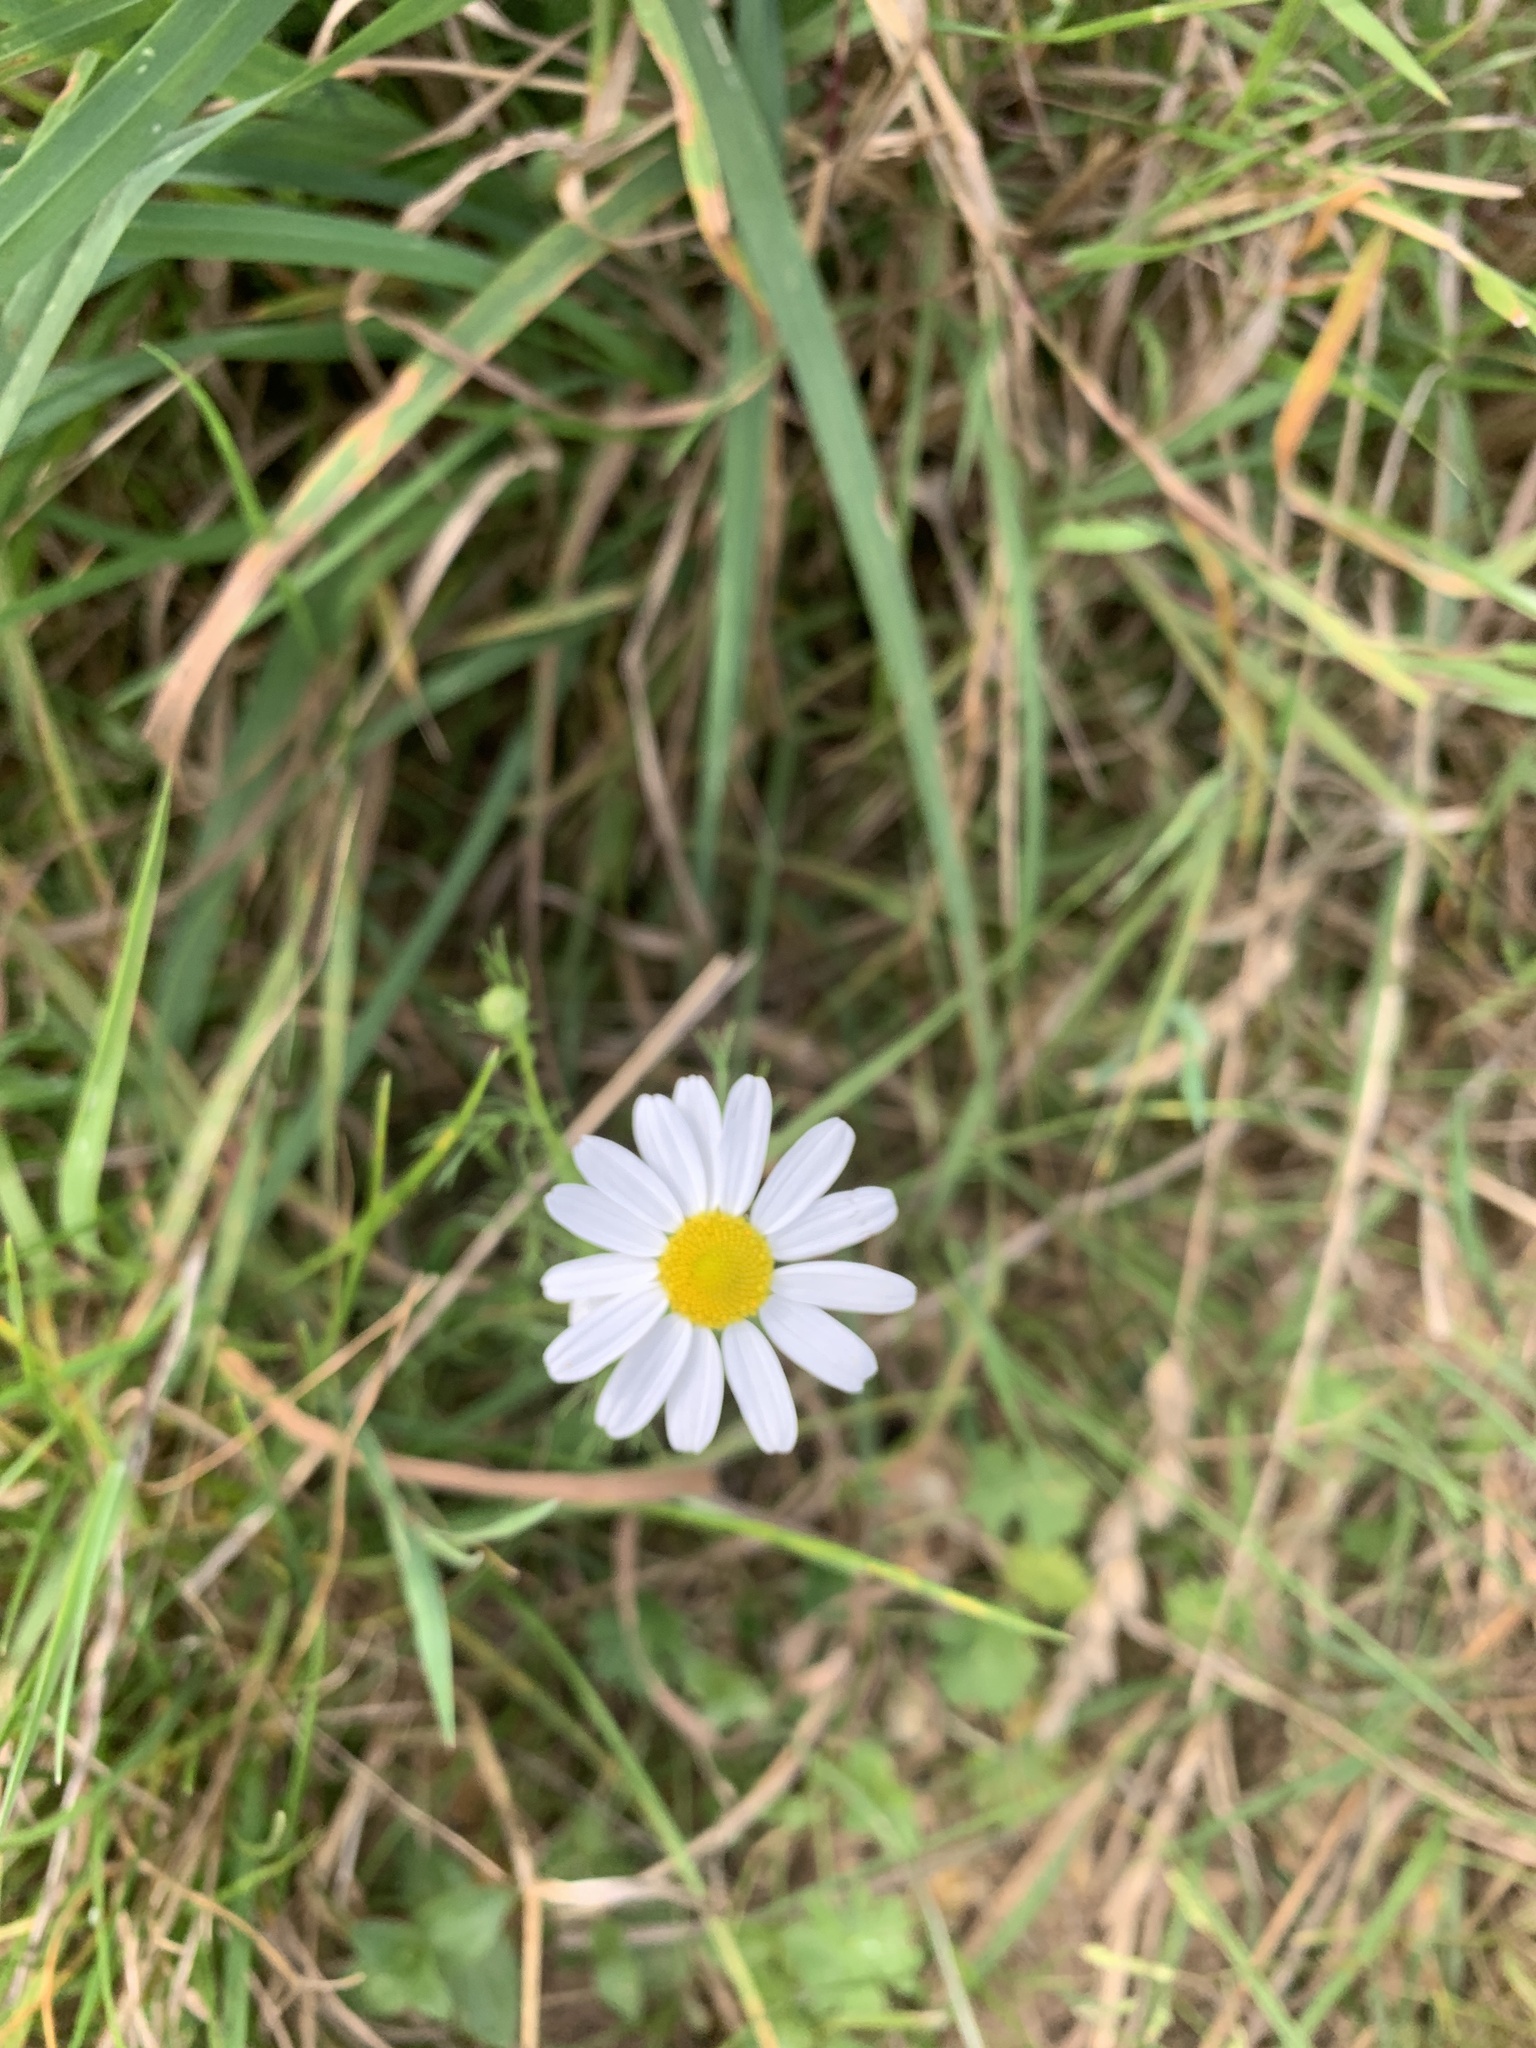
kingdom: Plantae
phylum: Tracheophyta
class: Magnoliopsida
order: Asterales
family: Asteraceae
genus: Leucanthemum
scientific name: Leucanthemum vulgare
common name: Oxeye daisy
